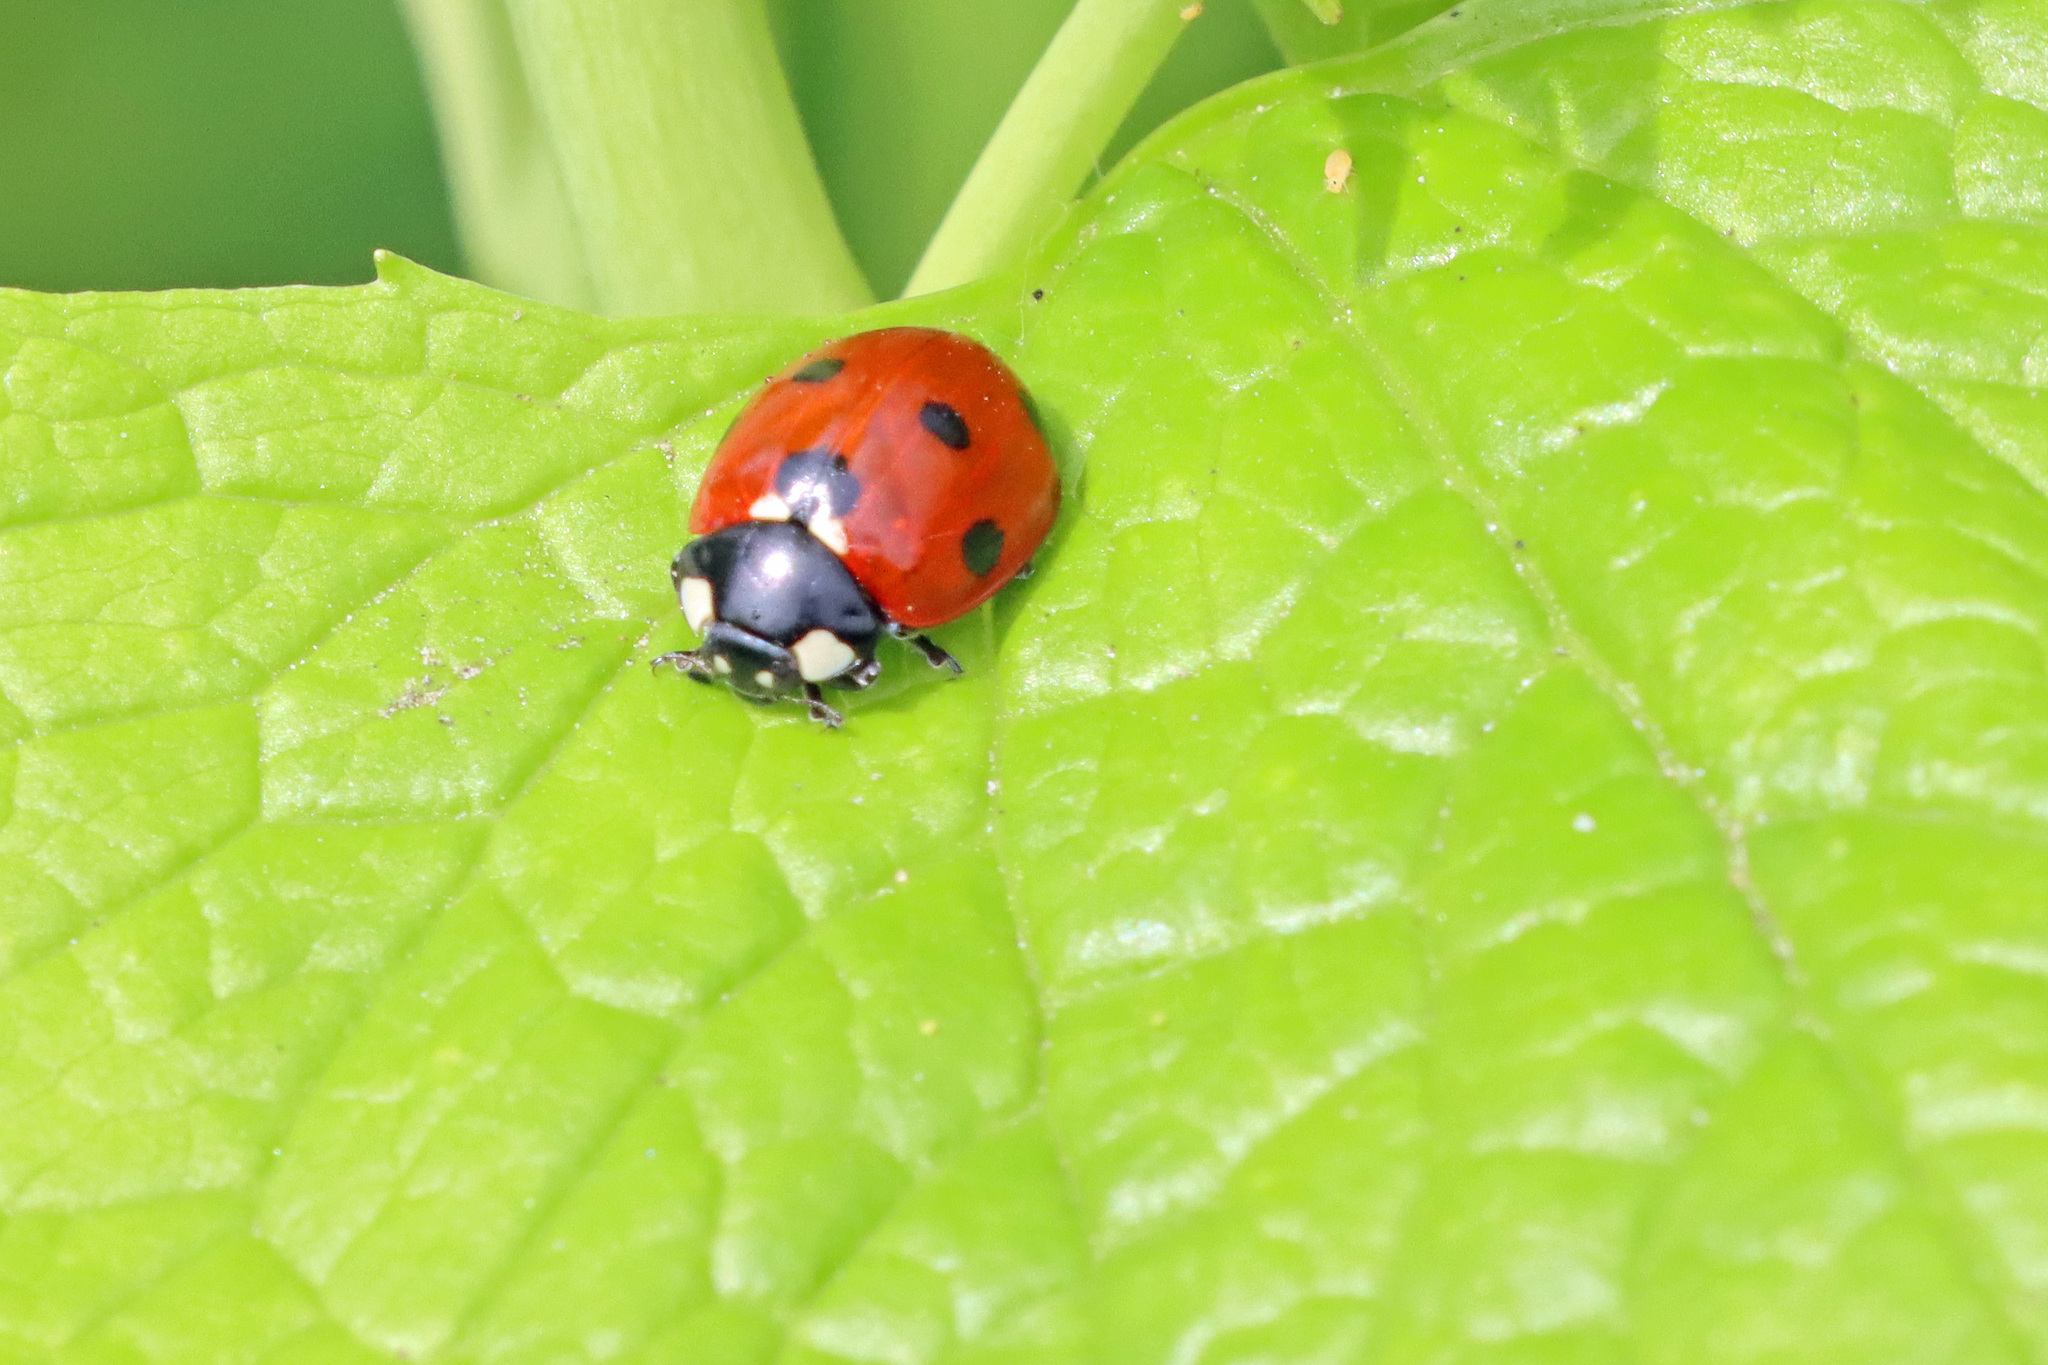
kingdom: Animalia
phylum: Arthropoda
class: Insecta
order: Coleoptera
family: Coccinellidae
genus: Coccinella
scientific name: Coccinella septempunctata
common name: Sevenspotted lady beetle
